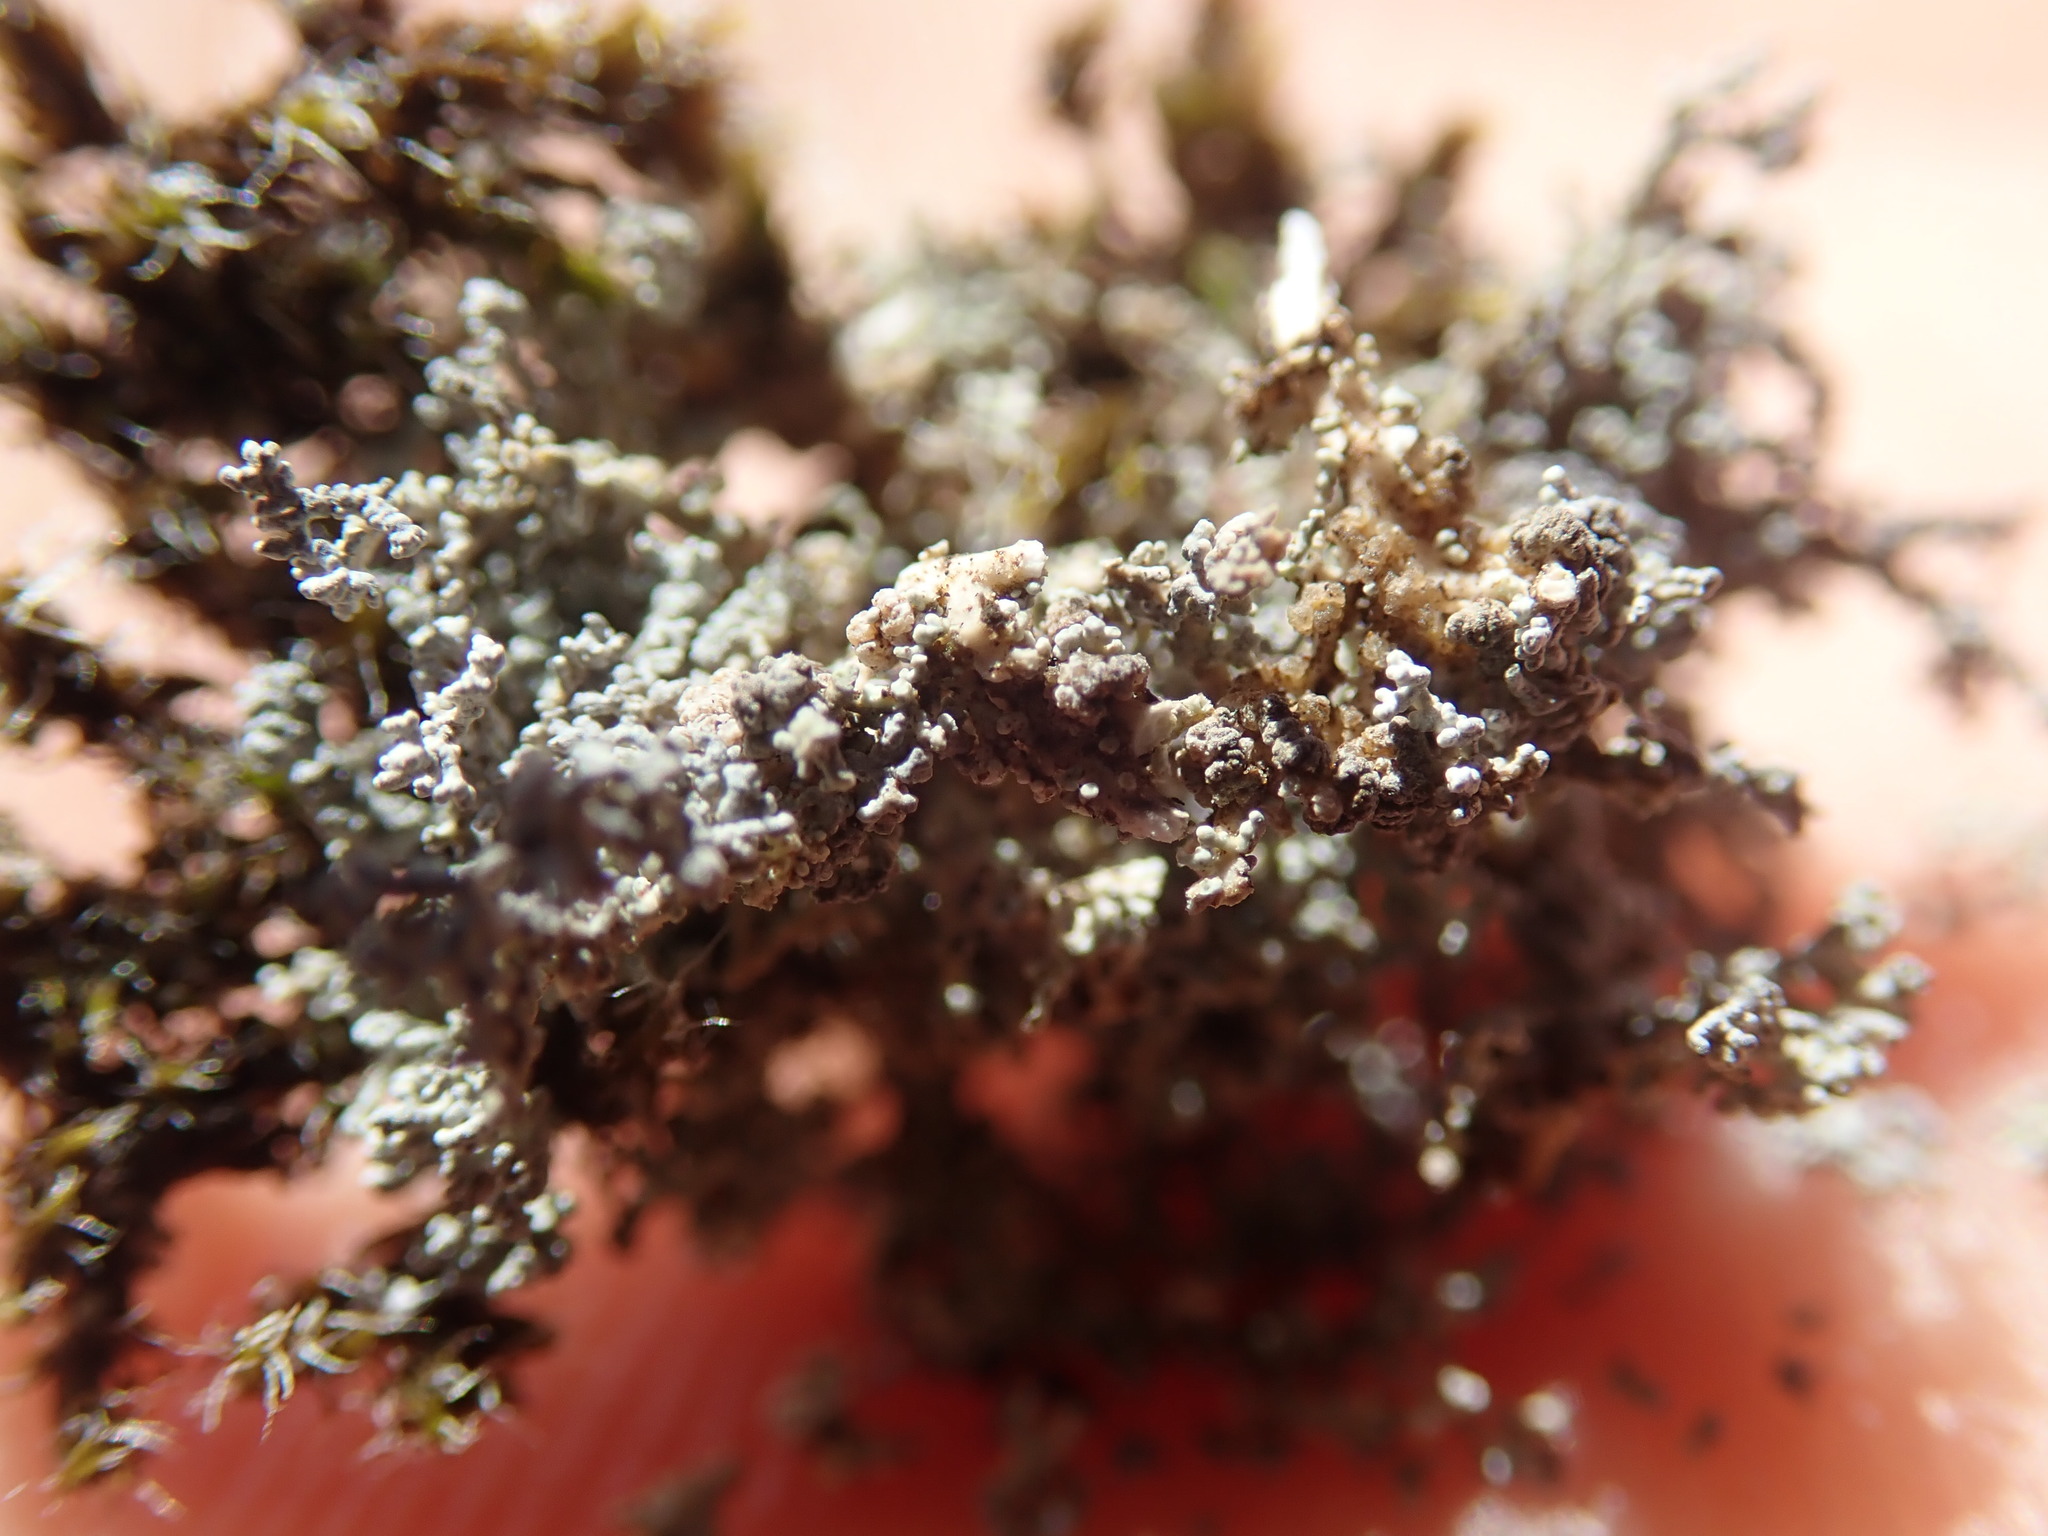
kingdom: Fungi
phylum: Ascomycota
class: Lecanoromycetes
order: Lecanorales
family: Stereocaulaceae
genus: Stereocaulon
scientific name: Stereocaulon sterile
